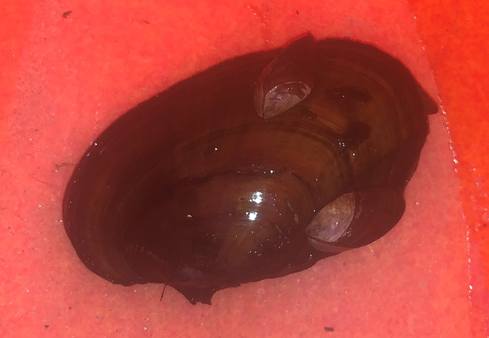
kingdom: Animalia
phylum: Mollusca
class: Bivalvia
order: Myida
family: Dreissenidae
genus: Dreissena
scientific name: Dreissena polymorpha
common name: Zebra mussel
